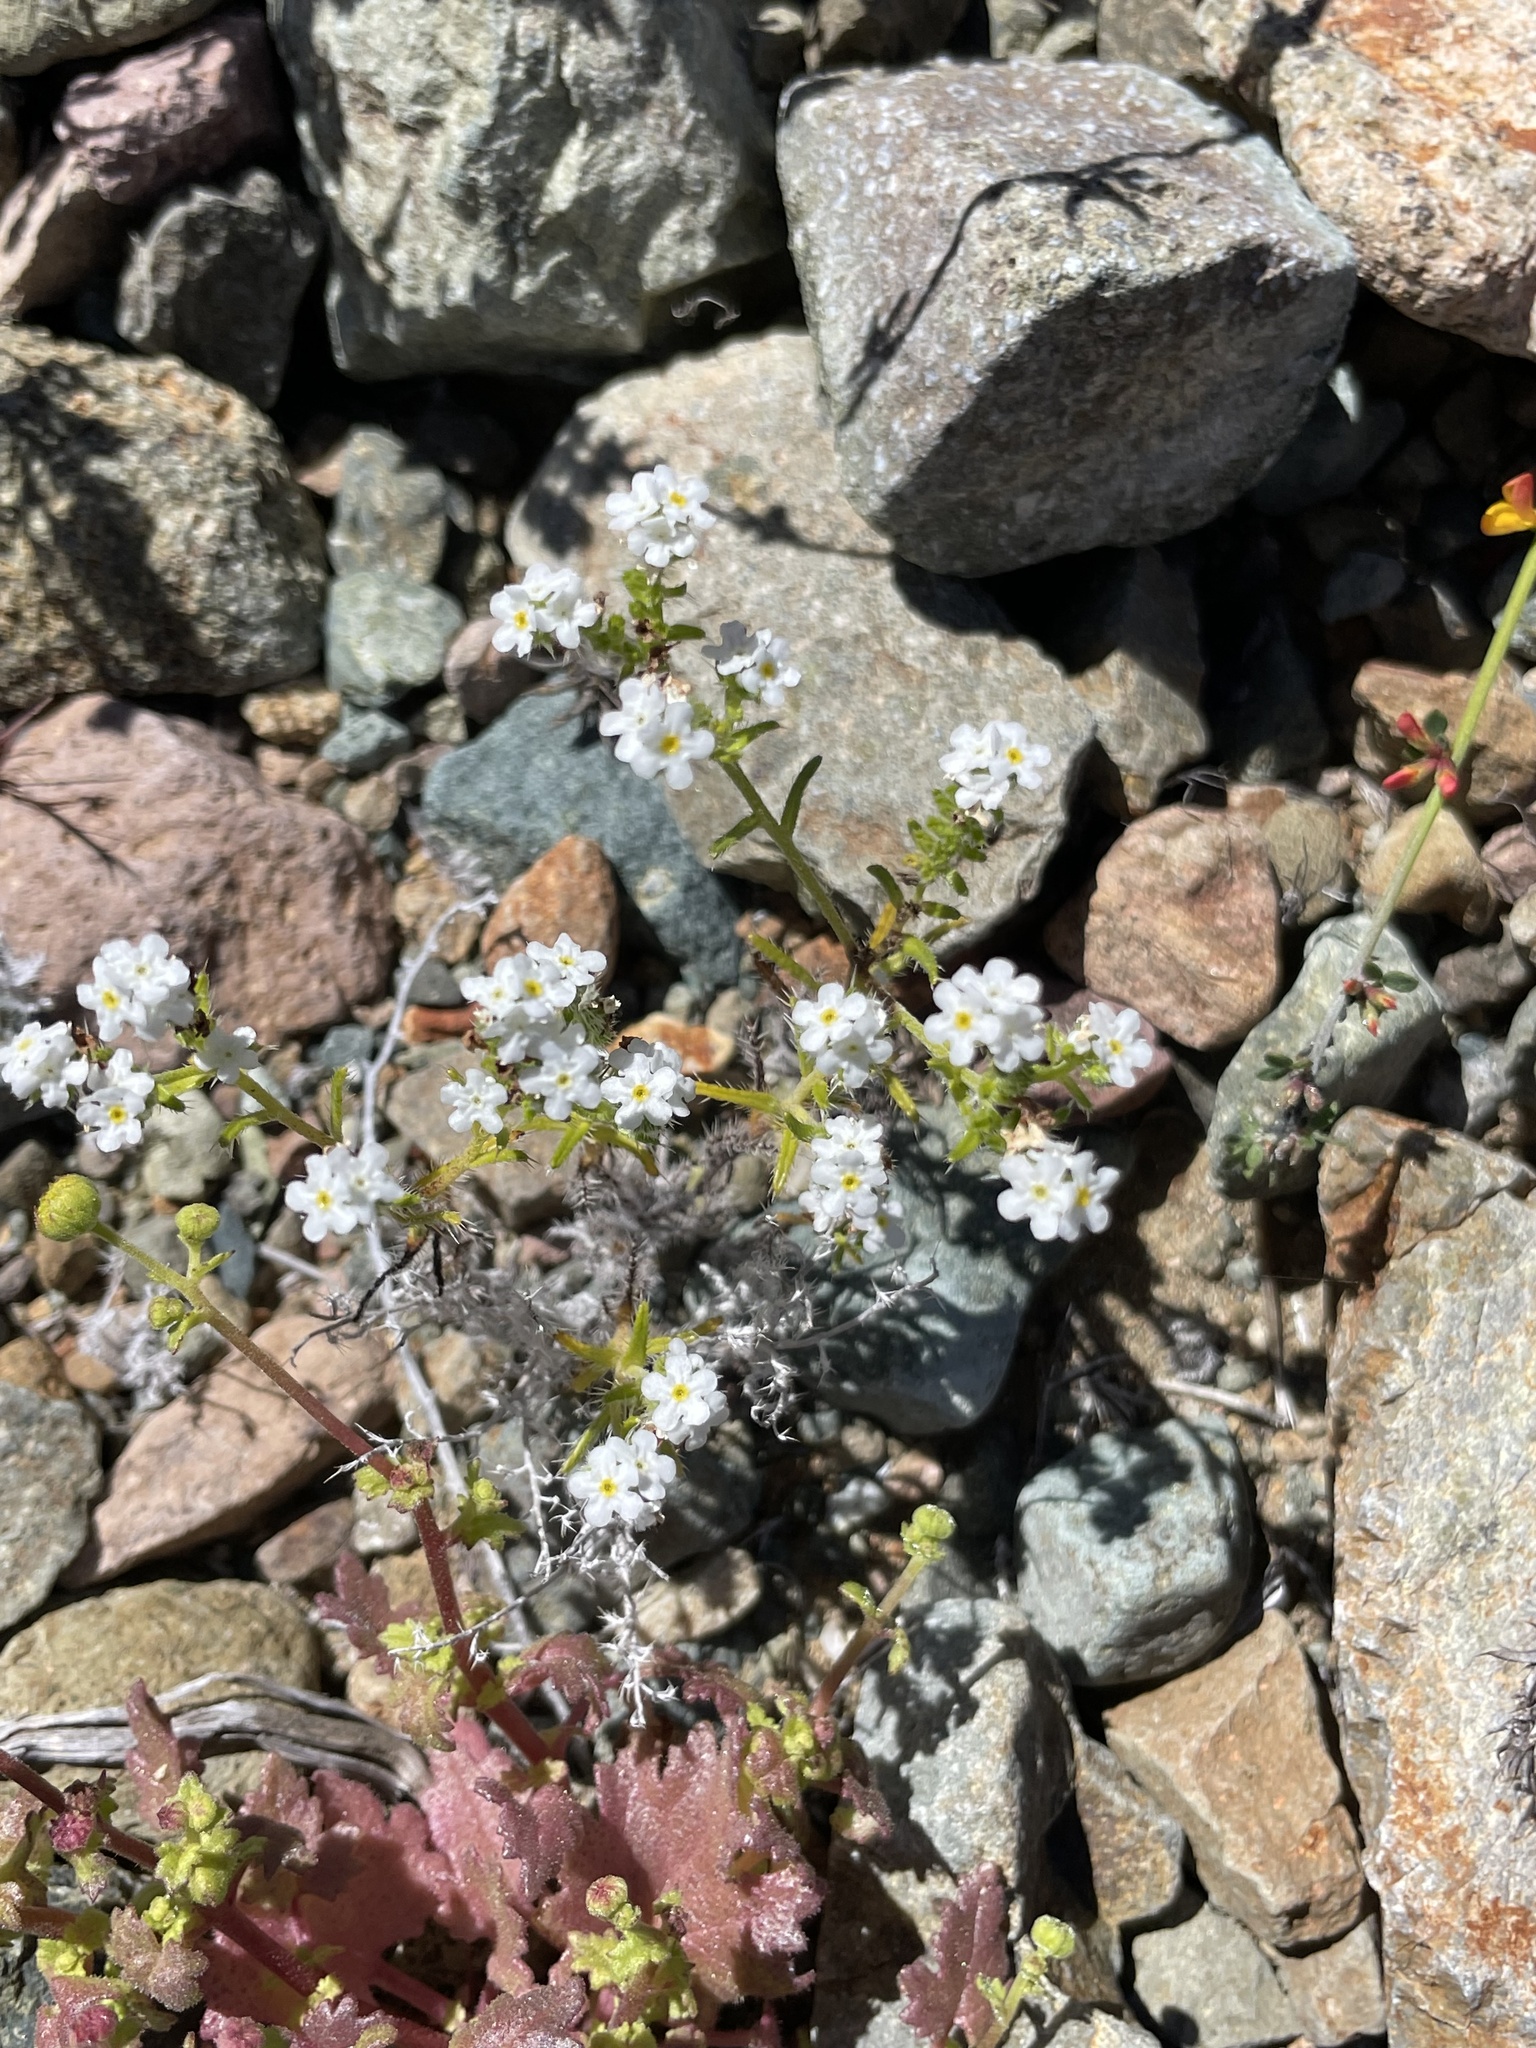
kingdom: Plantae
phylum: Tracheophyta
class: Magnoliopsida
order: Boraginales
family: Boraginaceae
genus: Cryptantha
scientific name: Cryptantha maritima
